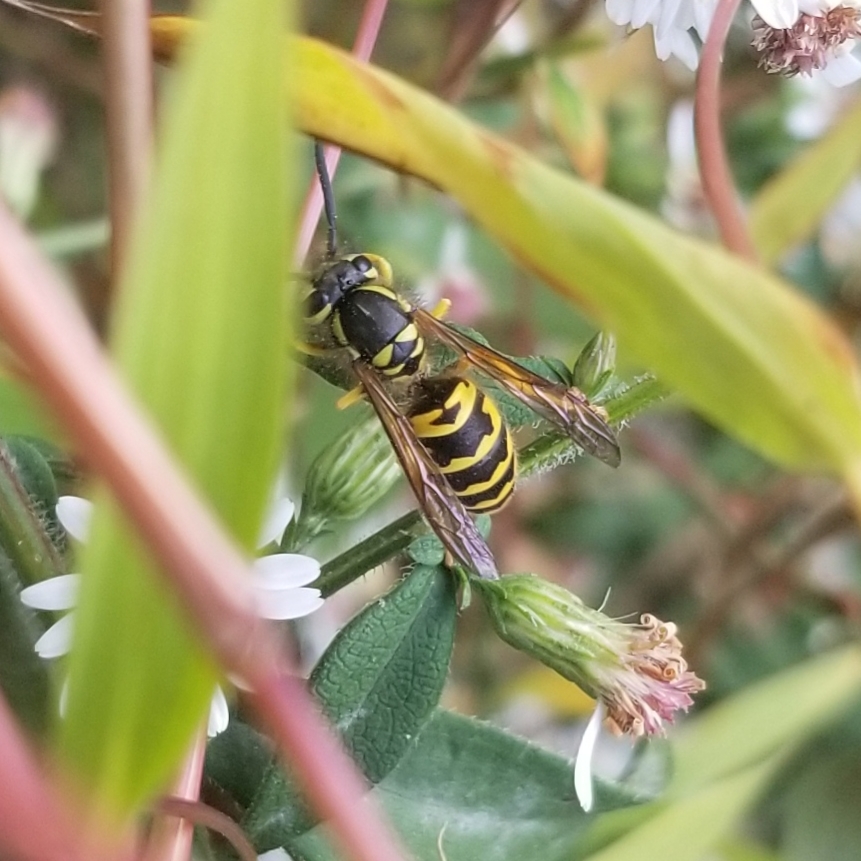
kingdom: Animalia
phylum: Arthropoda
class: Insecta
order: Hymenoptera
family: Vespidae
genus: Vespula
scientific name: Vespula maculifrons
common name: Eastern yellowjacket
